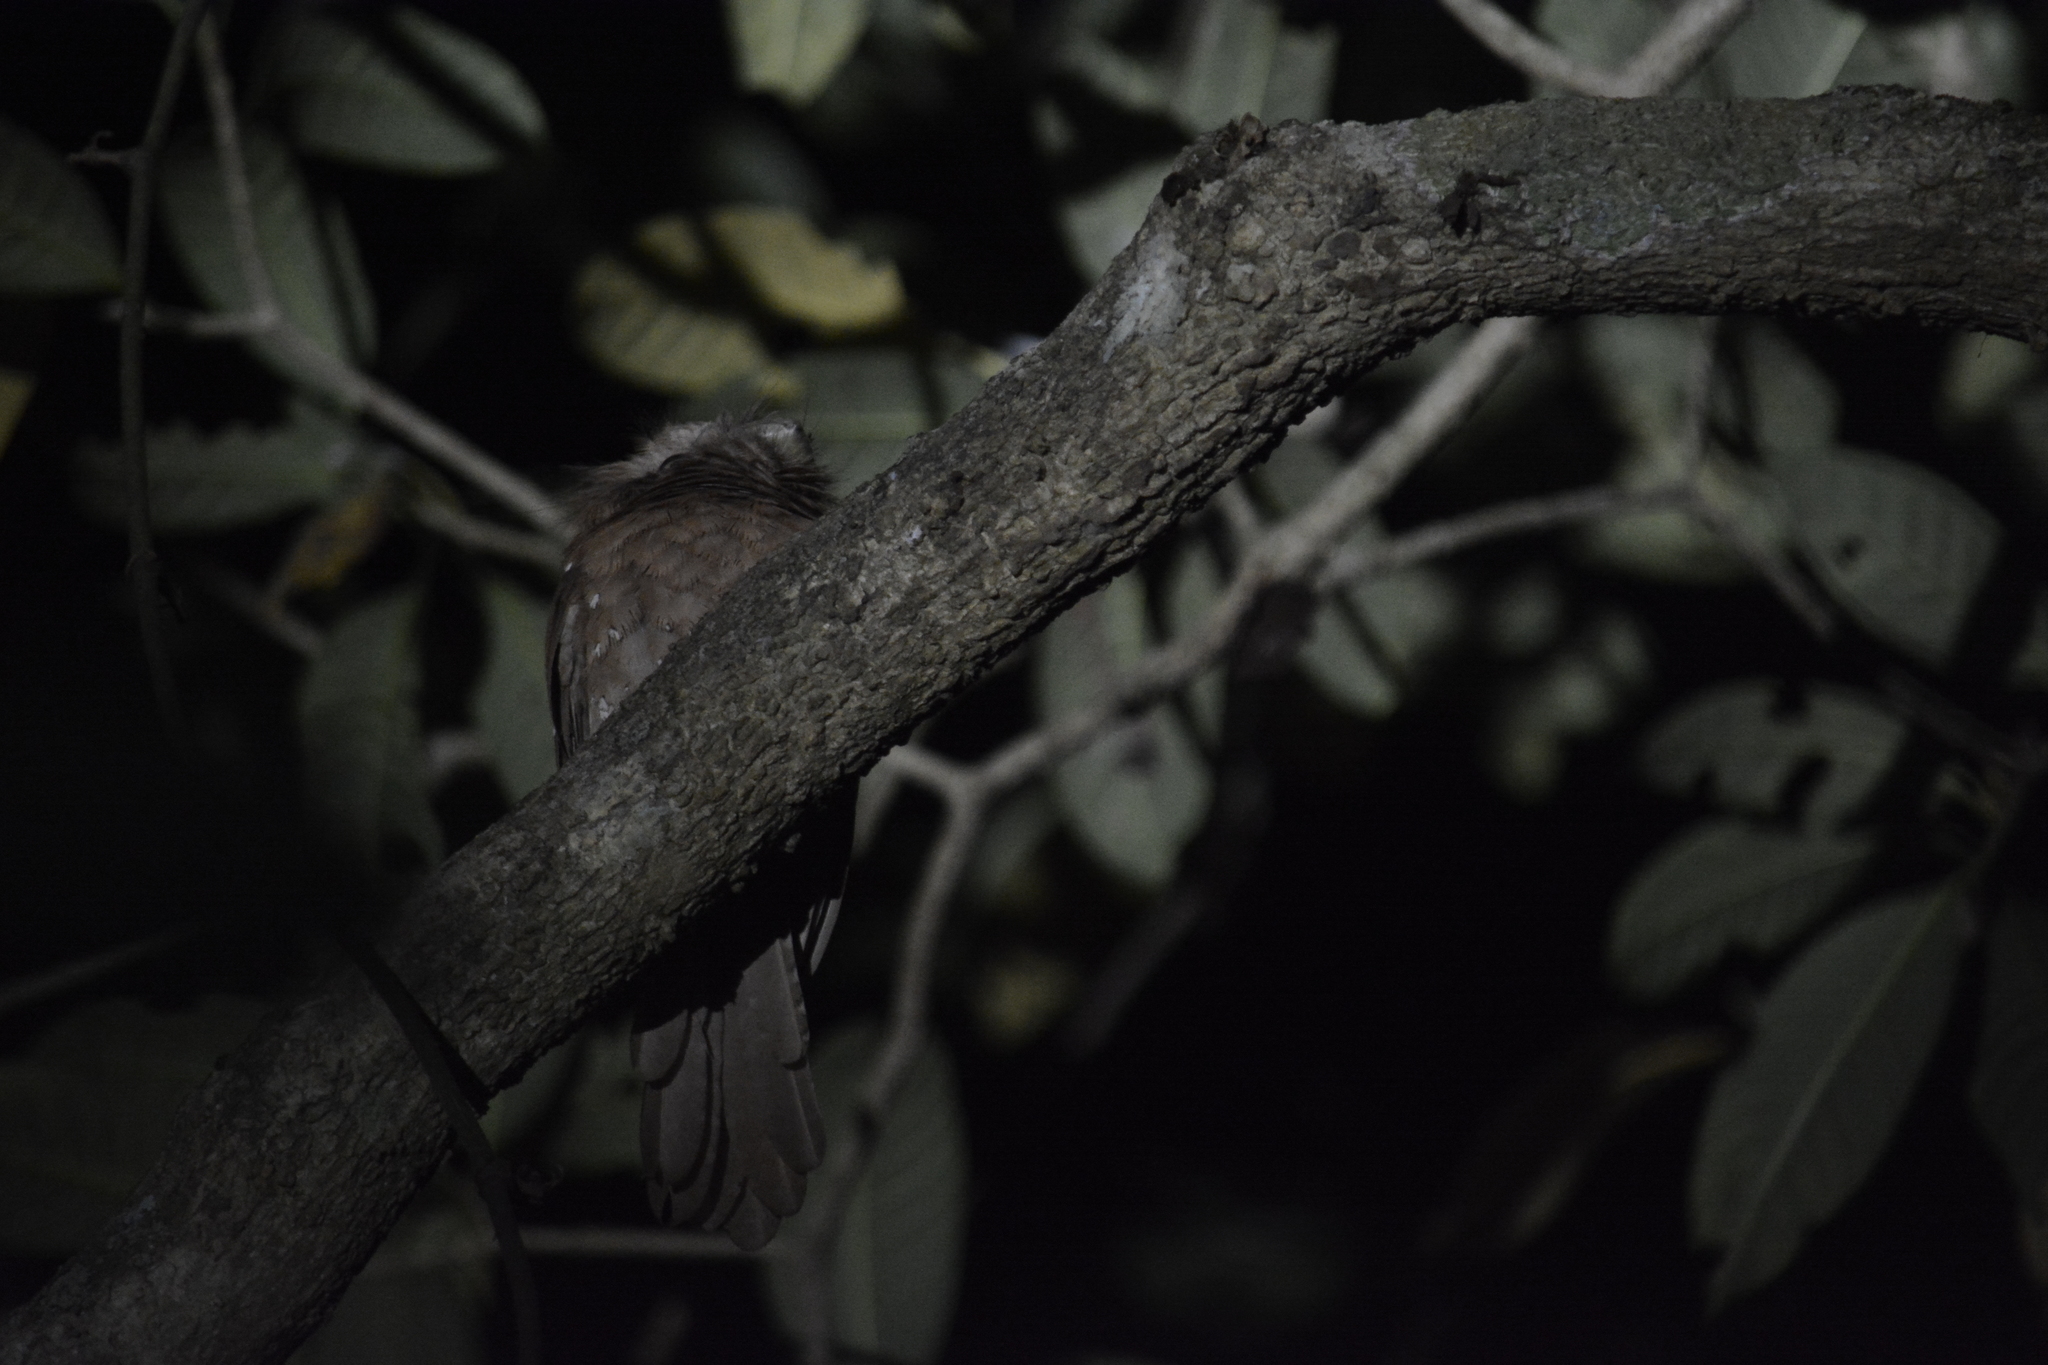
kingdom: Animalia
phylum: Chordata
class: Aves
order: Caprimulgiformes
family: Podargidae
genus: Batrachostomus
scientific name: Batrachostomus moniliger
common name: Sri lanka frogmouth
